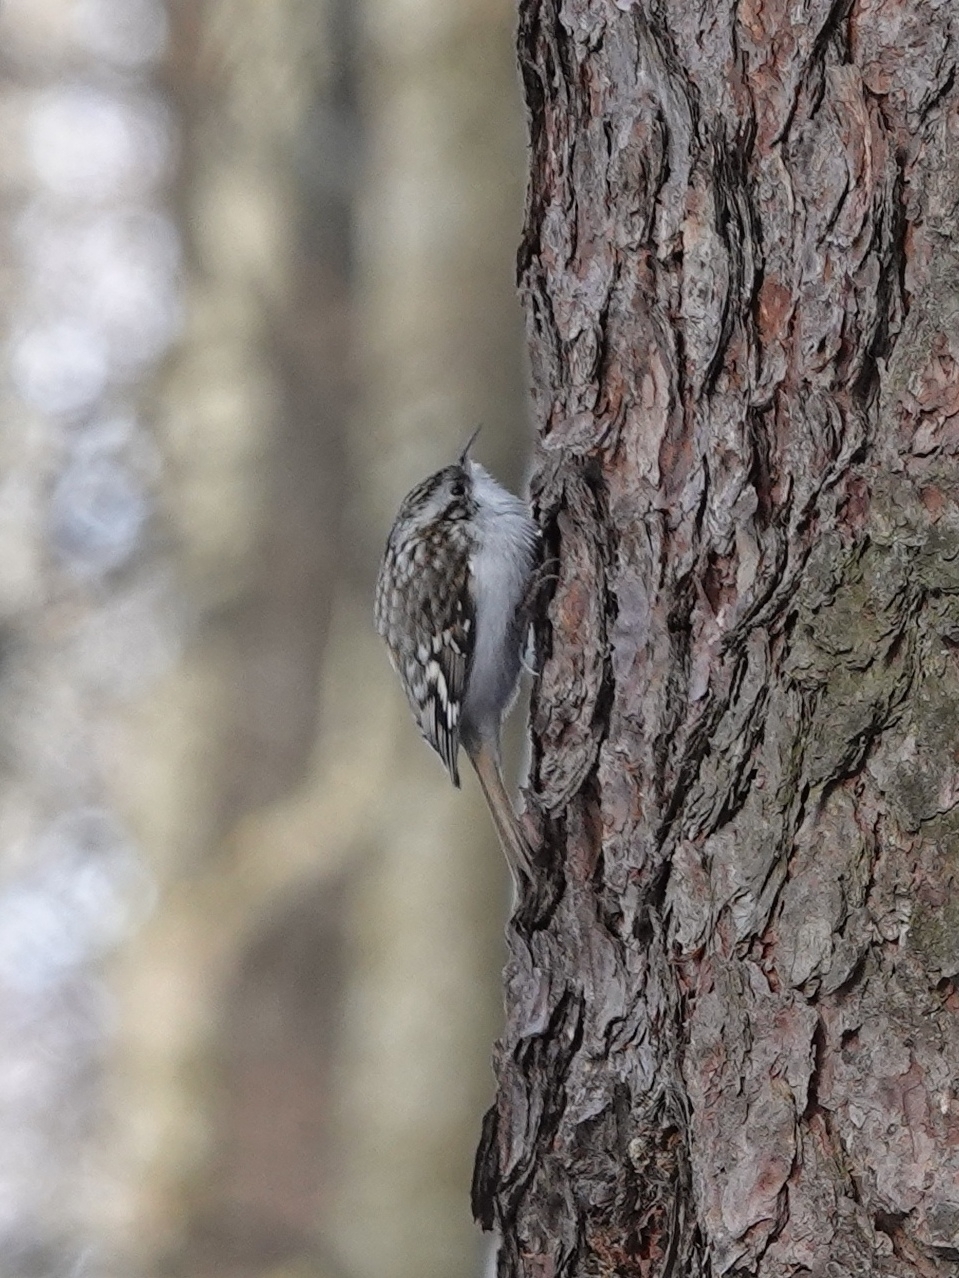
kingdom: Animalia
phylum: Chordata
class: Aves
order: Passeriformes
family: Certhiidae
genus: Certhia
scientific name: Certhia familiaris
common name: Eurasian treecreeper
